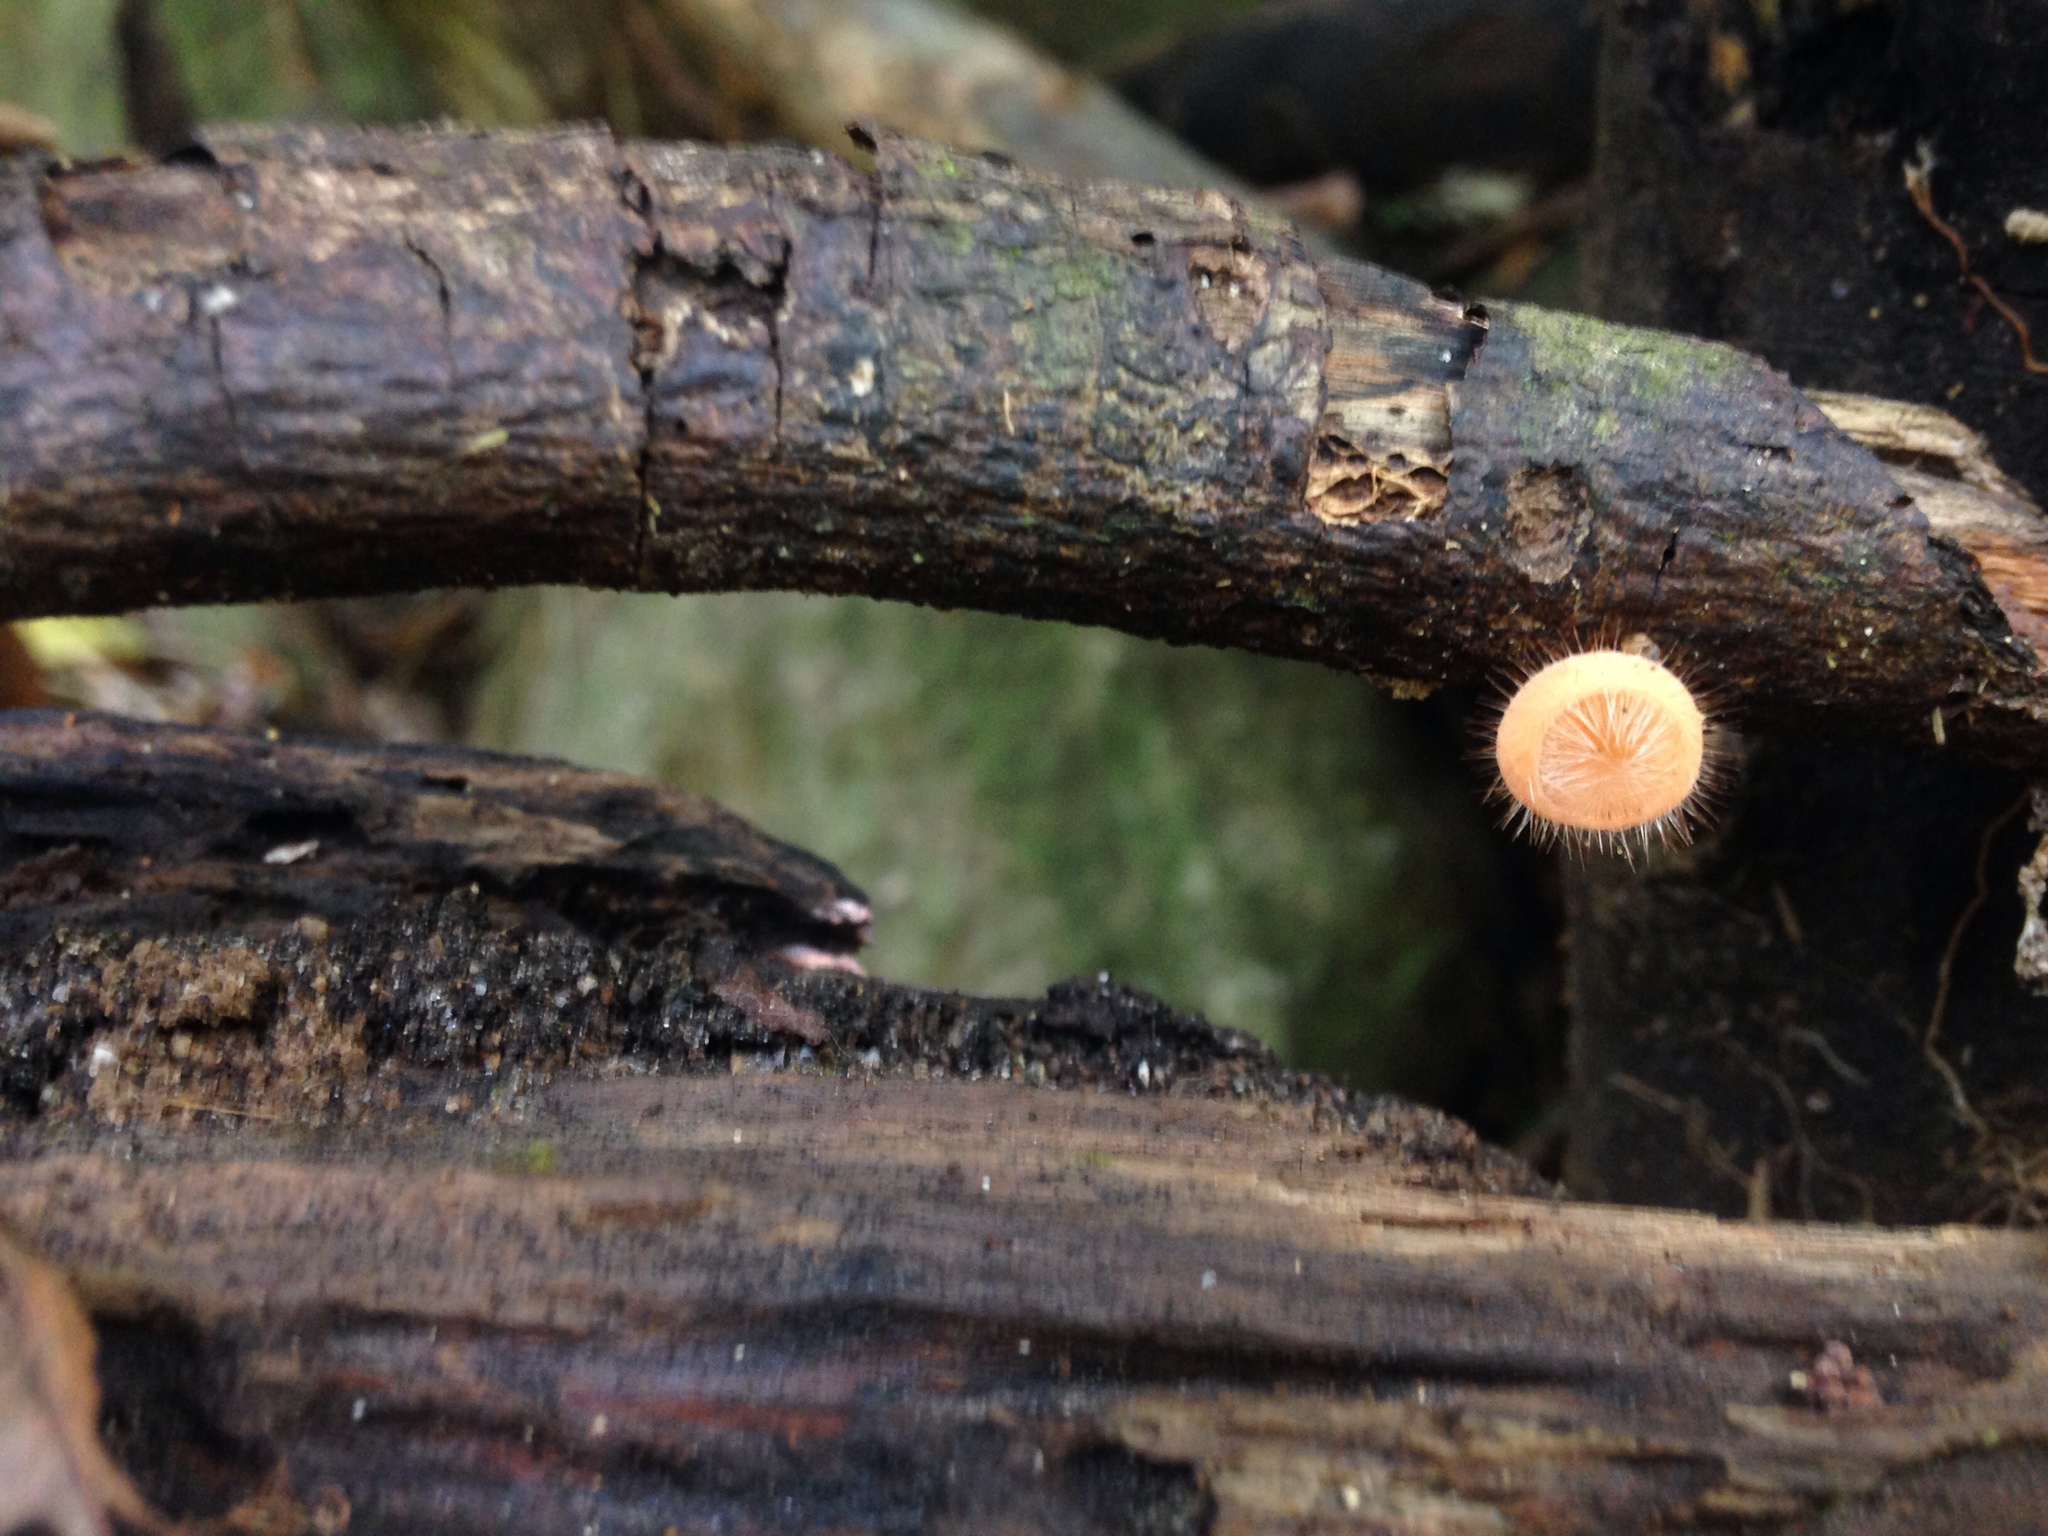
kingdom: Fungi
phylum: Ascomycota
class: Pezizomycetes
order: Pezizales
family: Sarcoscyphaceae
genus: Cookeina
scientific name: Cookeina tricholoma
